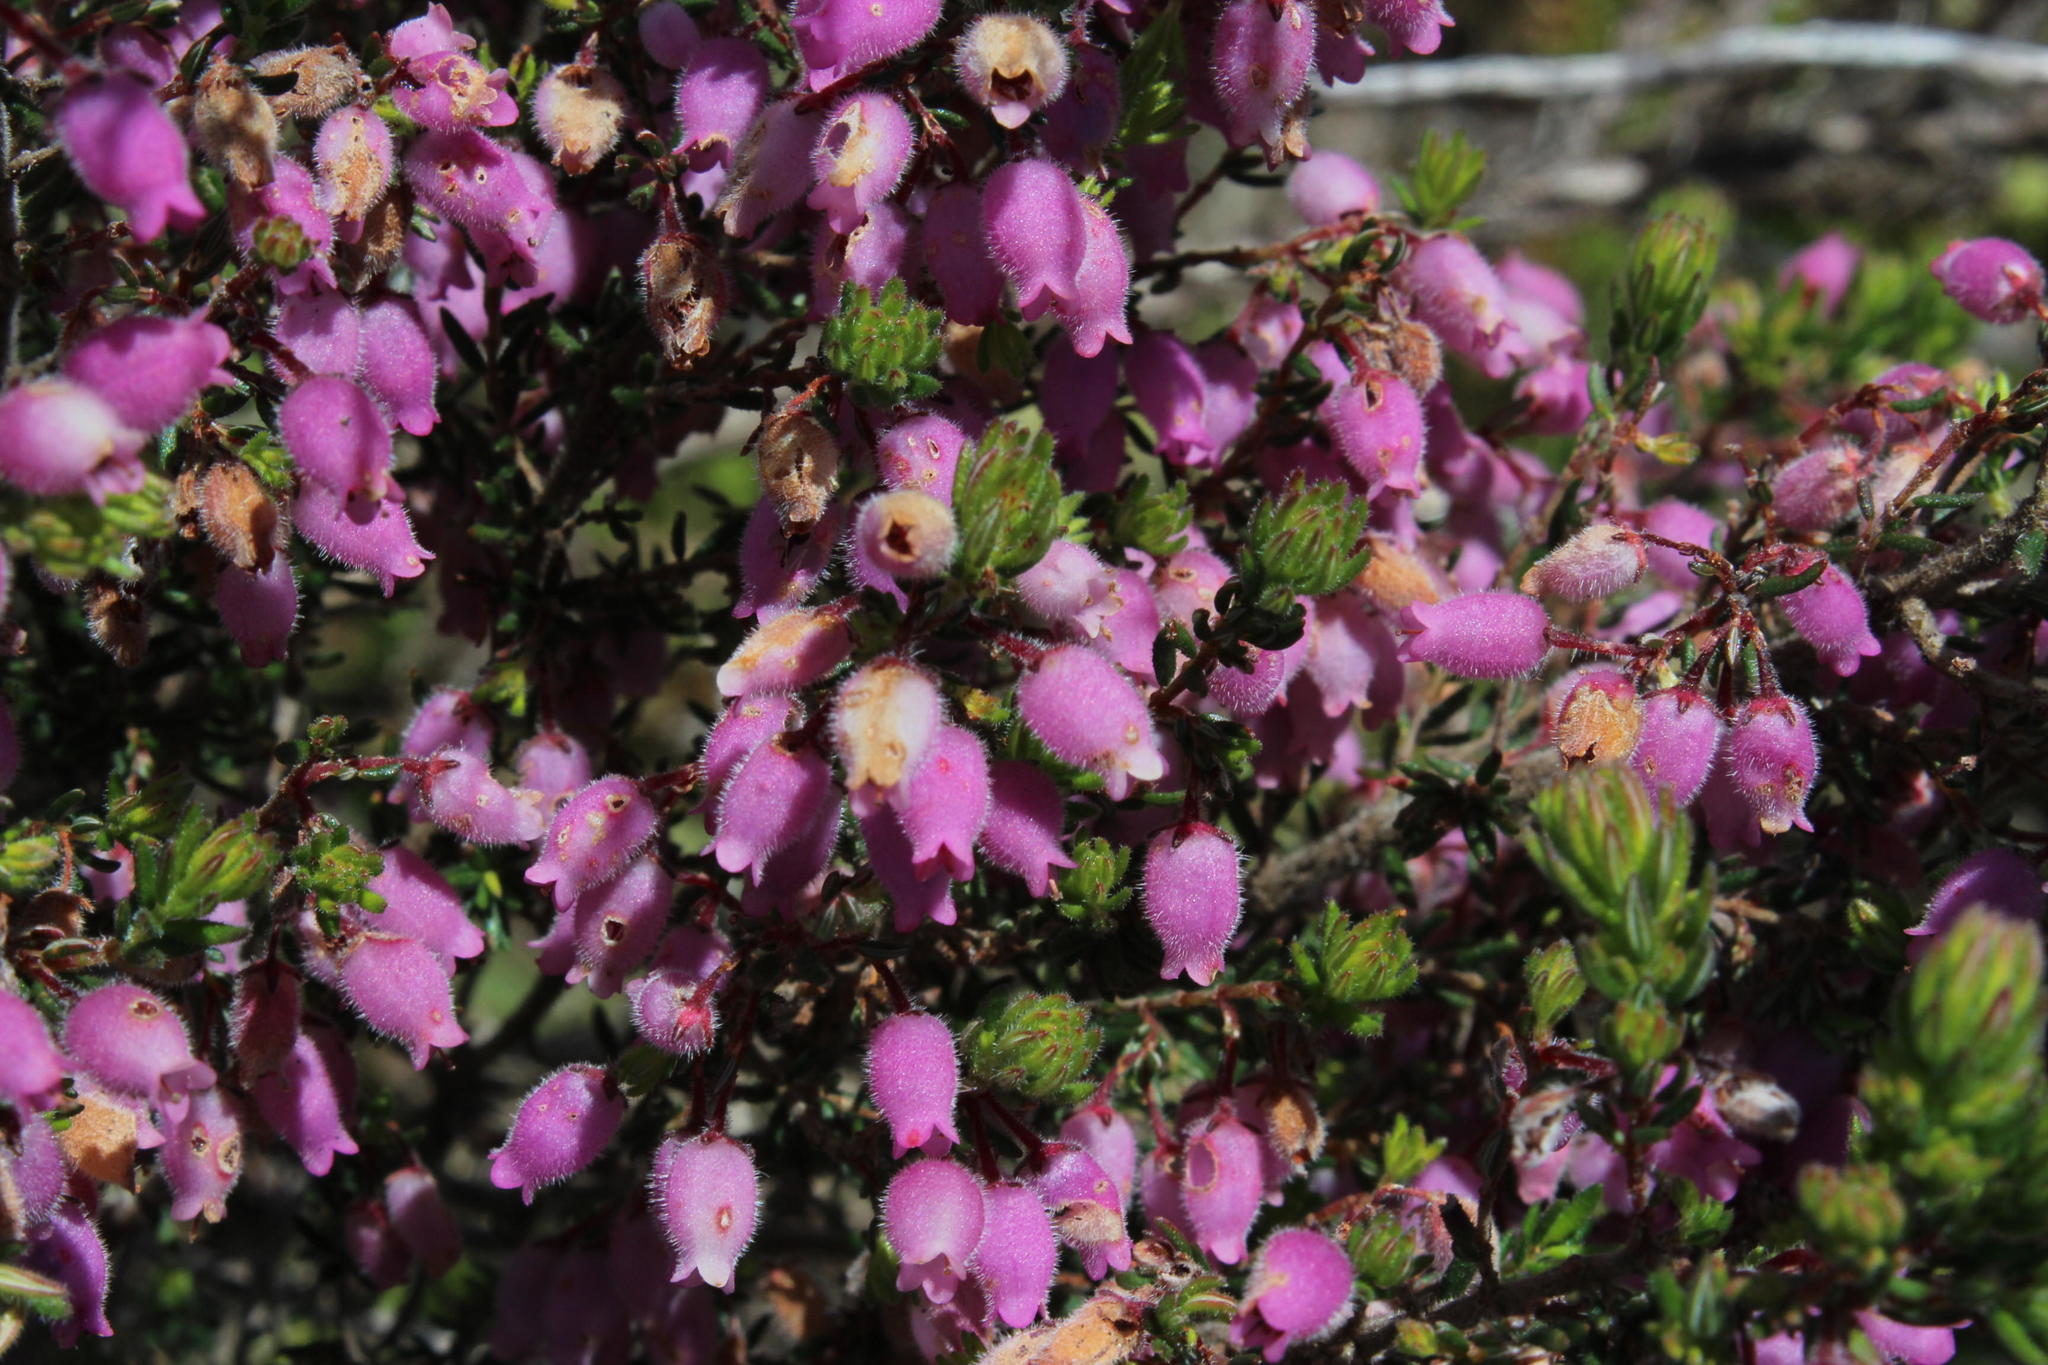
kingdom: Plantae
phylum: Tracheophyta
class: Magnoliopsida
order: Ericales
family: Ericaceae
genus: Erica
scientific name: Erica hirtiflora
